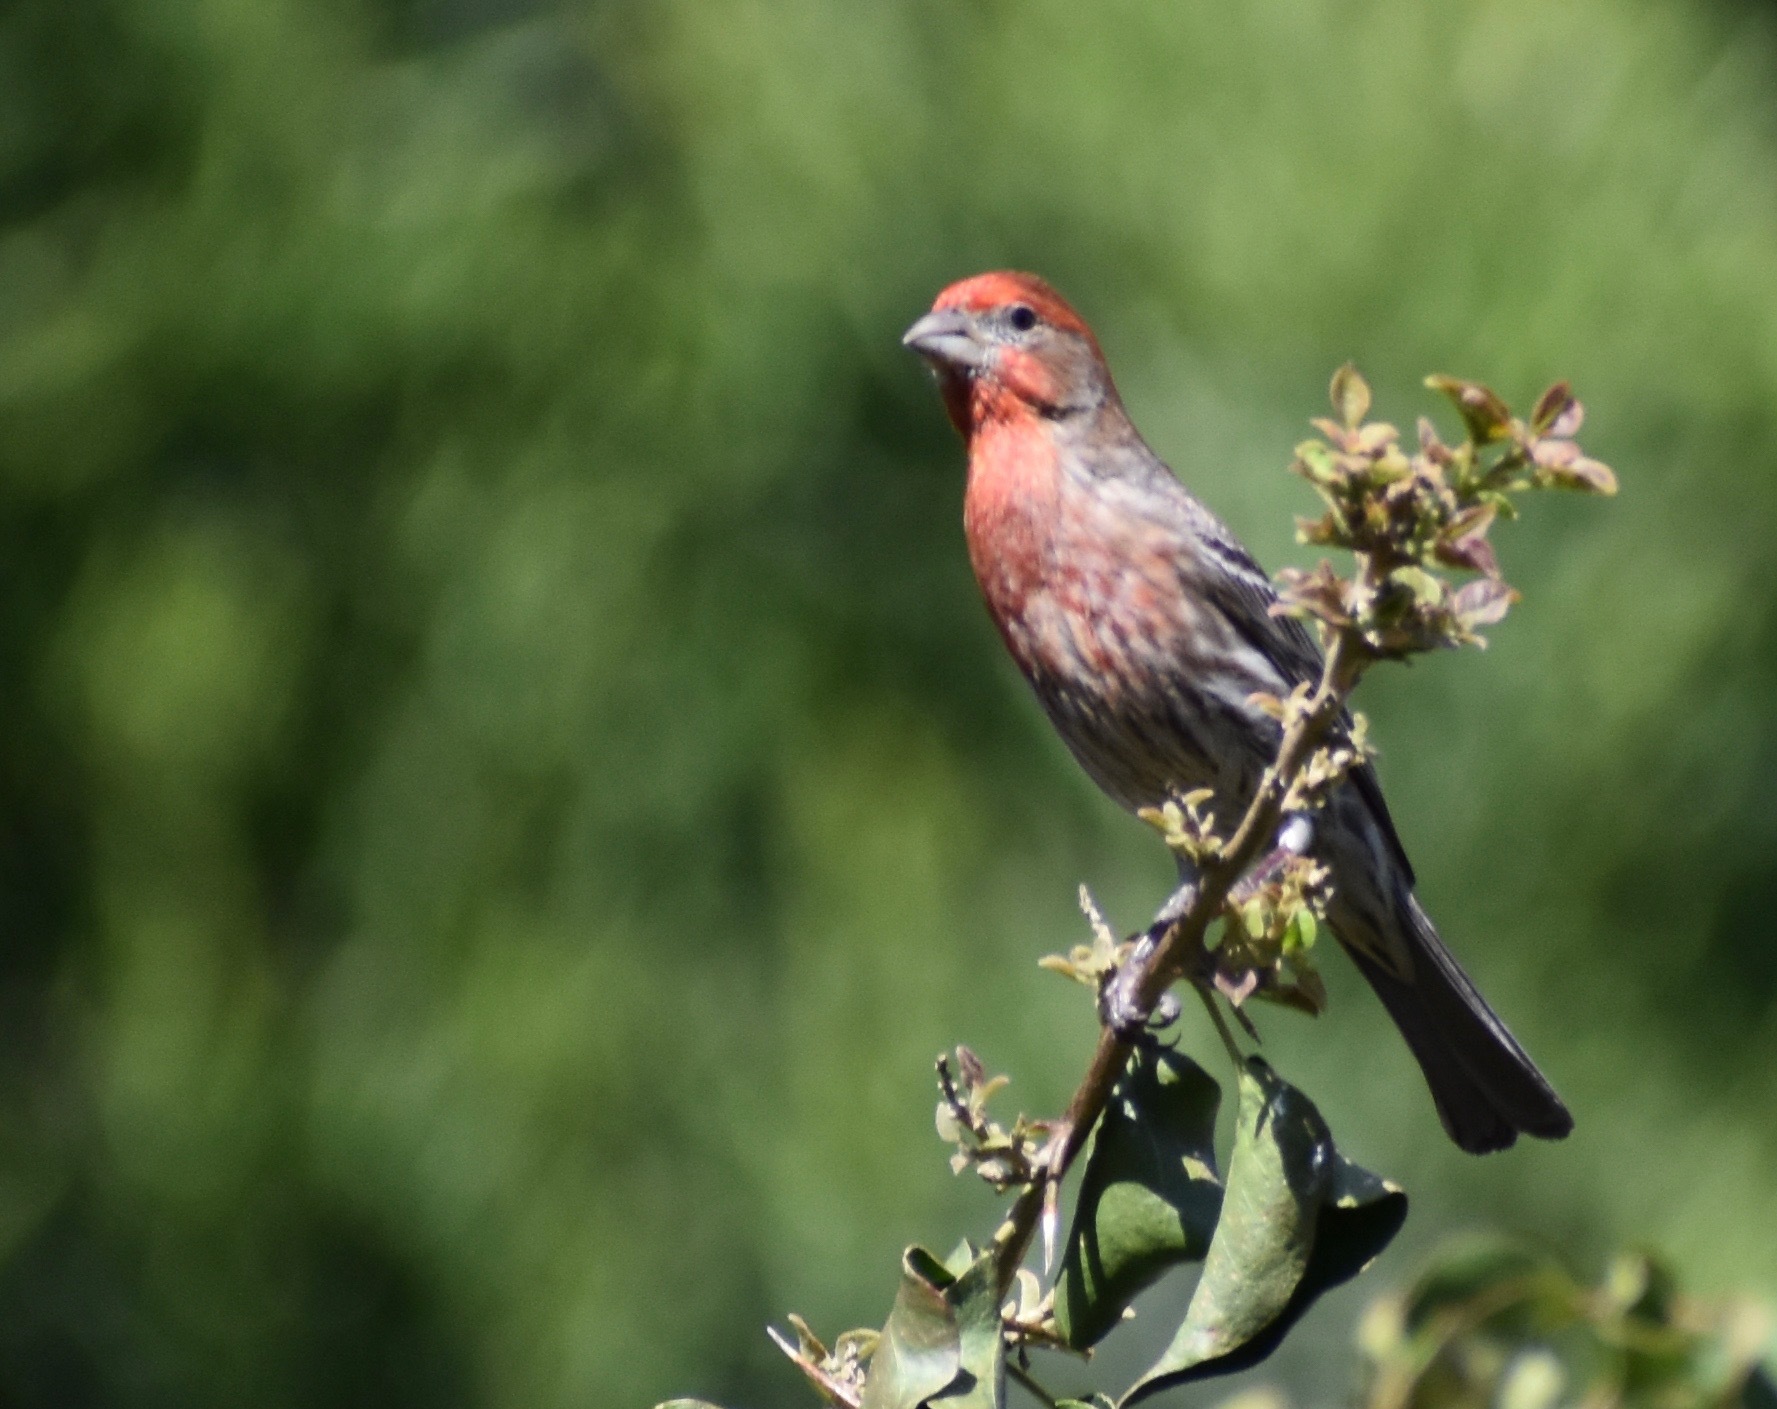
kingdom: Animalia
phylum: Chordata
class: Aves
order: Passeriformes
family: Fringillidae
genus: Haemorhous
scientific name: Haemorhous mexicanus
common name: House finch
